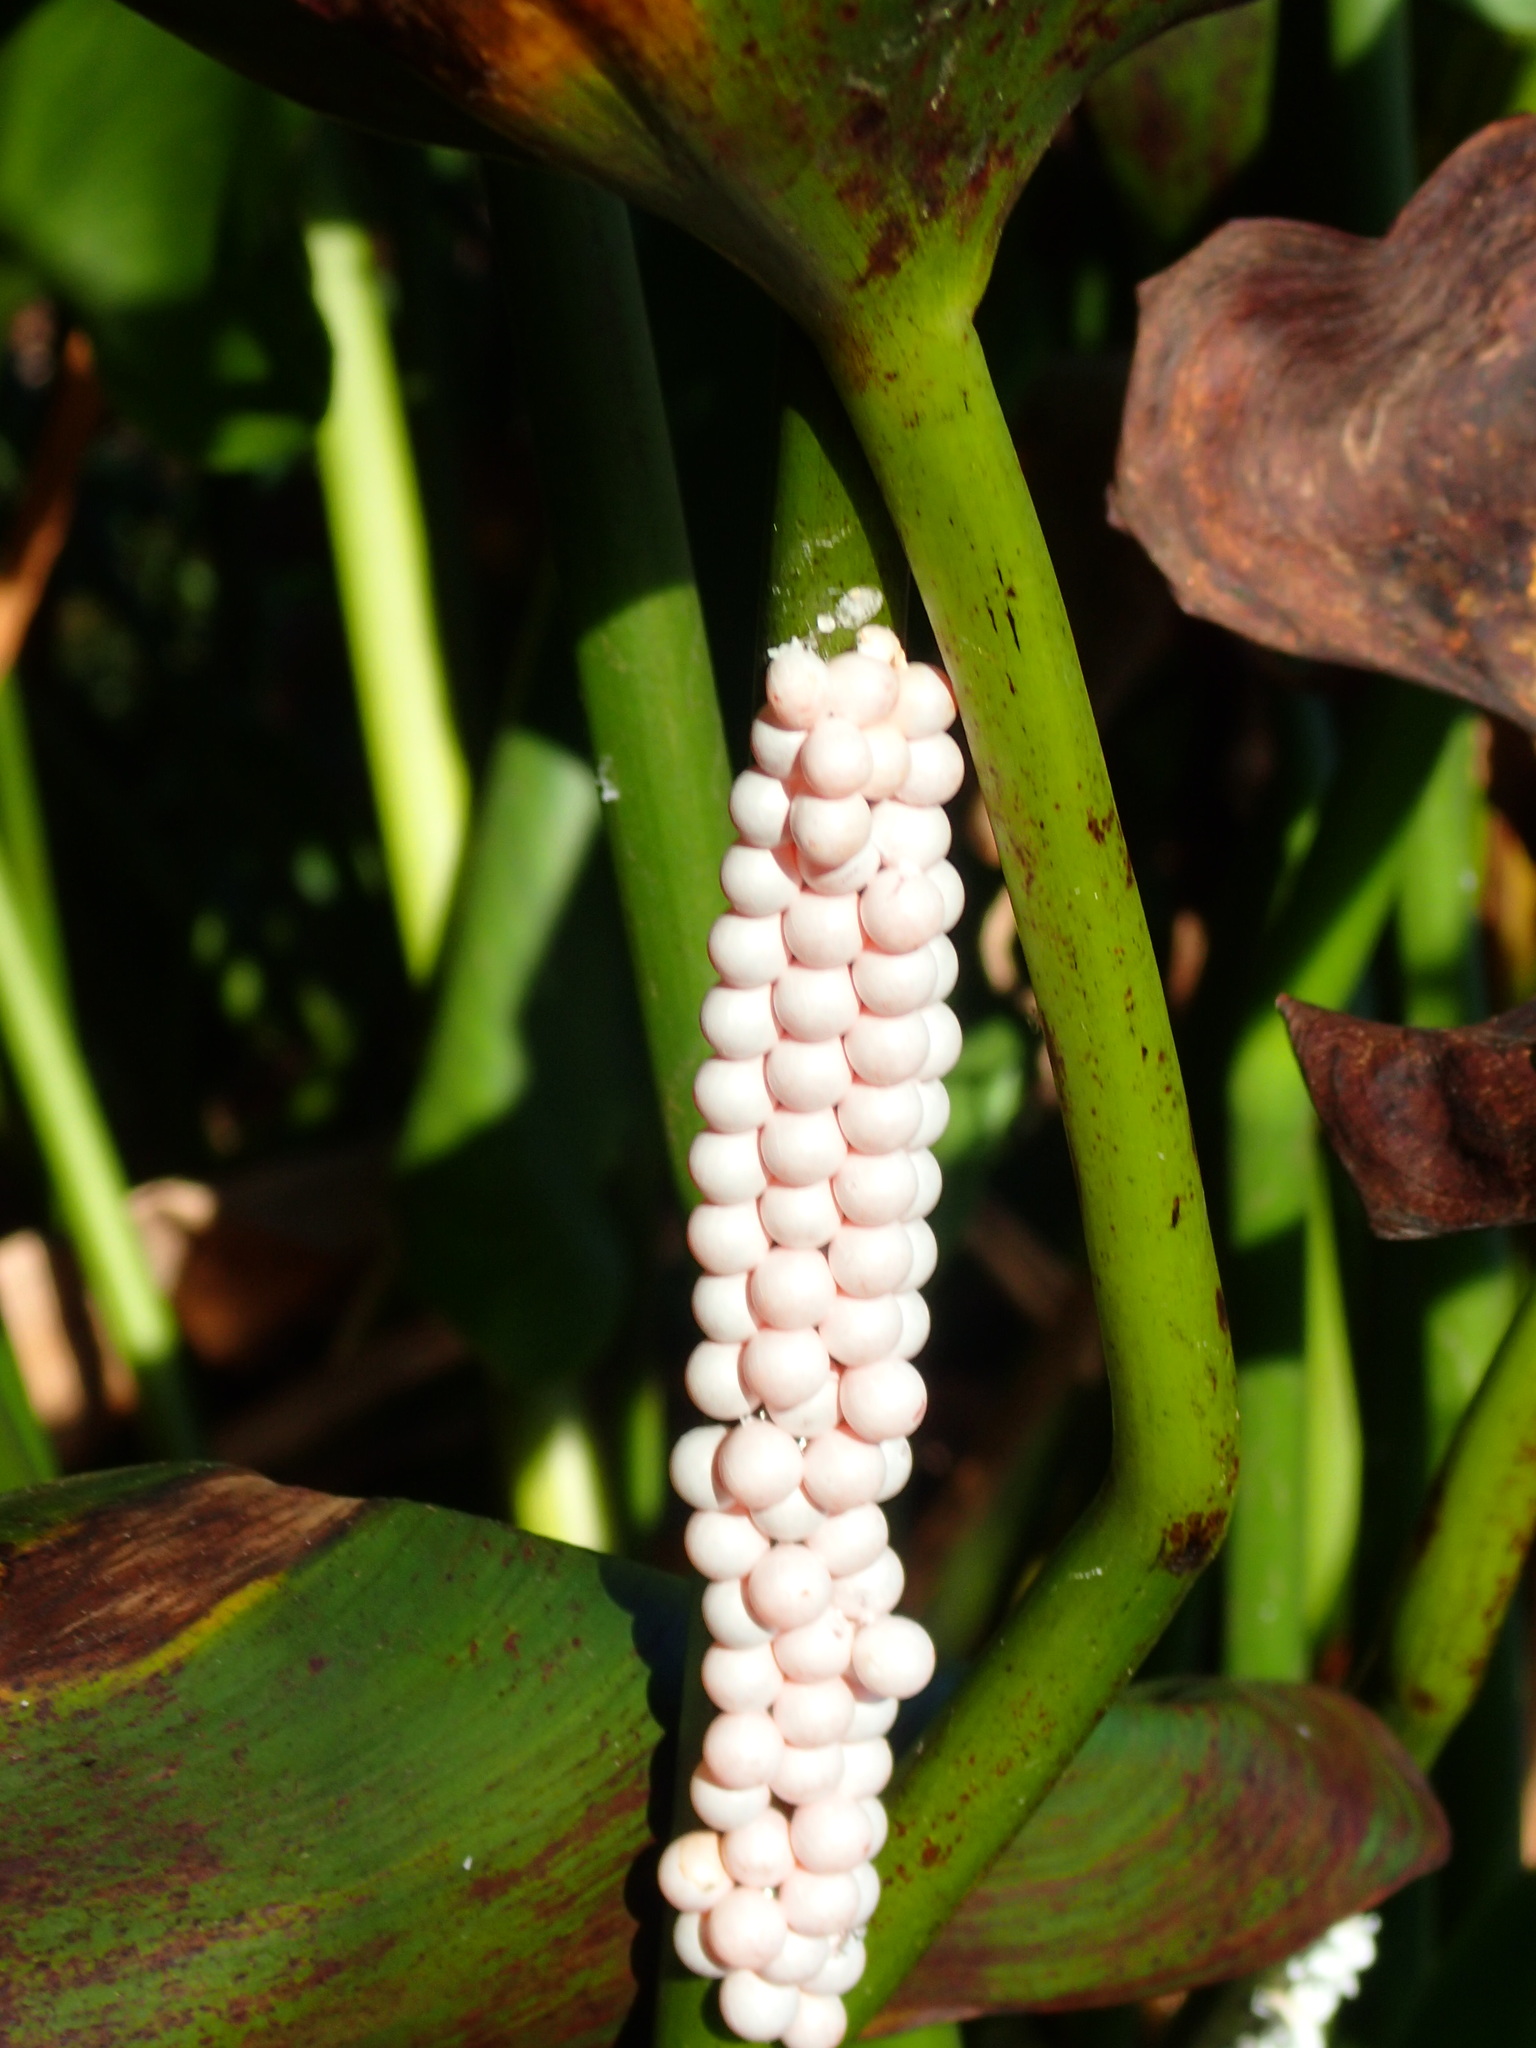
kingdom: Animalia
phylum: Mollusca
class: Gastropoda
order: Architaenioglossa
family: Ampullariidae
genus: Pomacea
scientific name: Pomacea paludosa
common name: Florida applesnail
